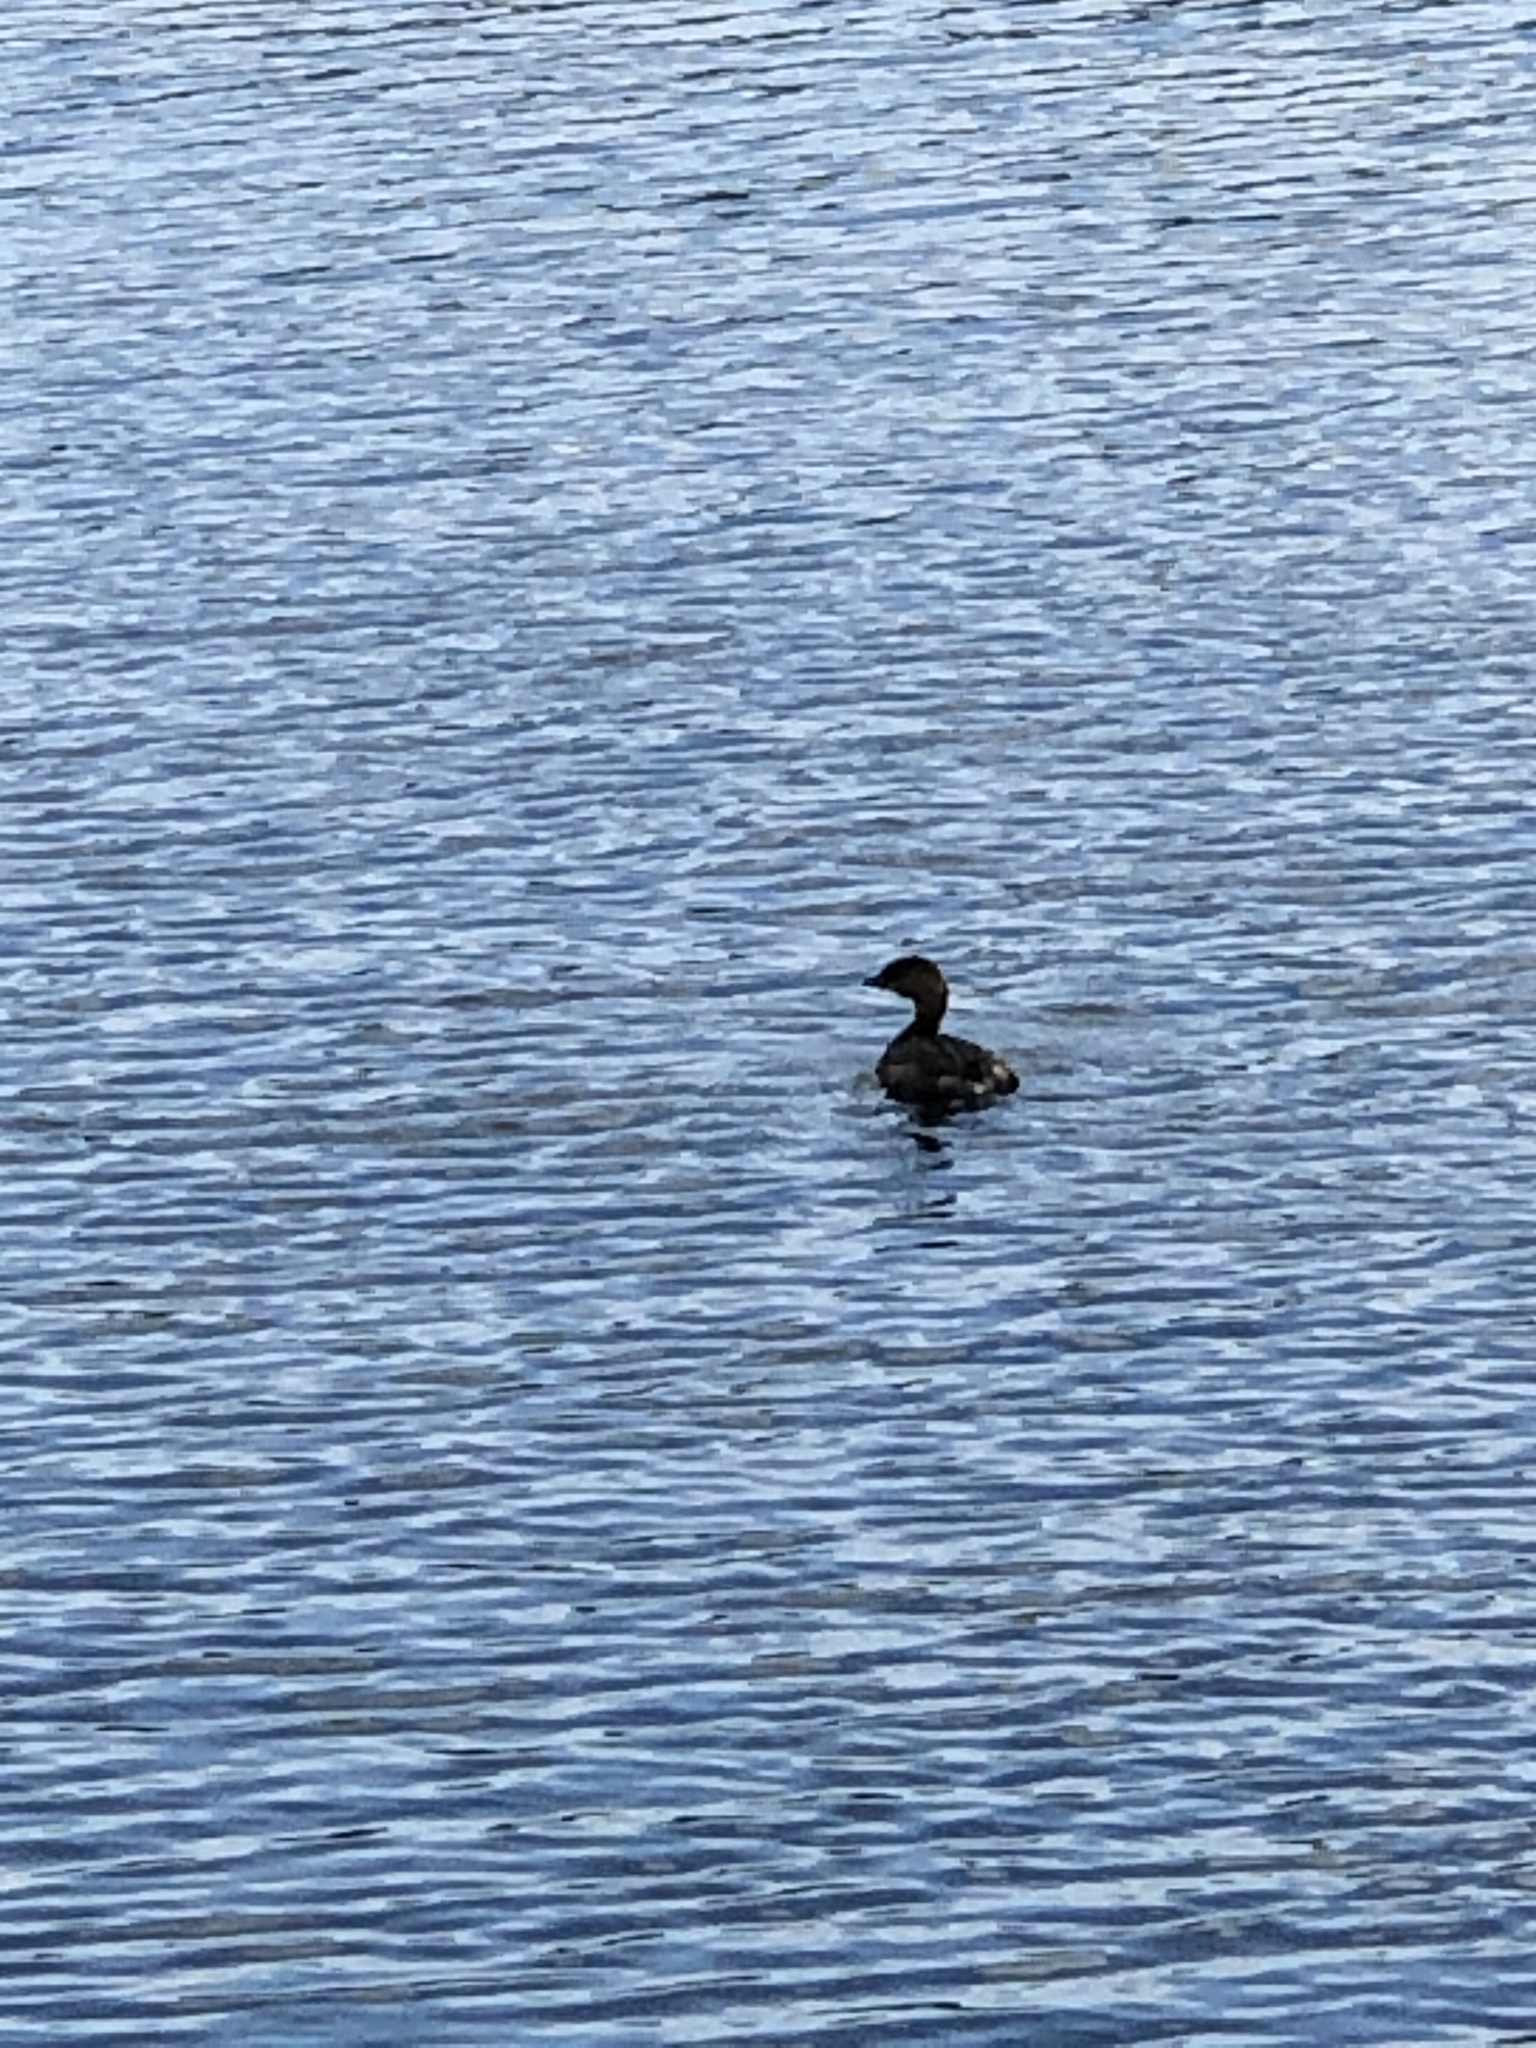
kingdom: Animalia
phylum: Chordata
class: Aves
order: Podicipediformes
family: Podicipedidae
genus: Podilymbus
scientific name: Podilymbus podiceps
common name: Pied-billed grebe
